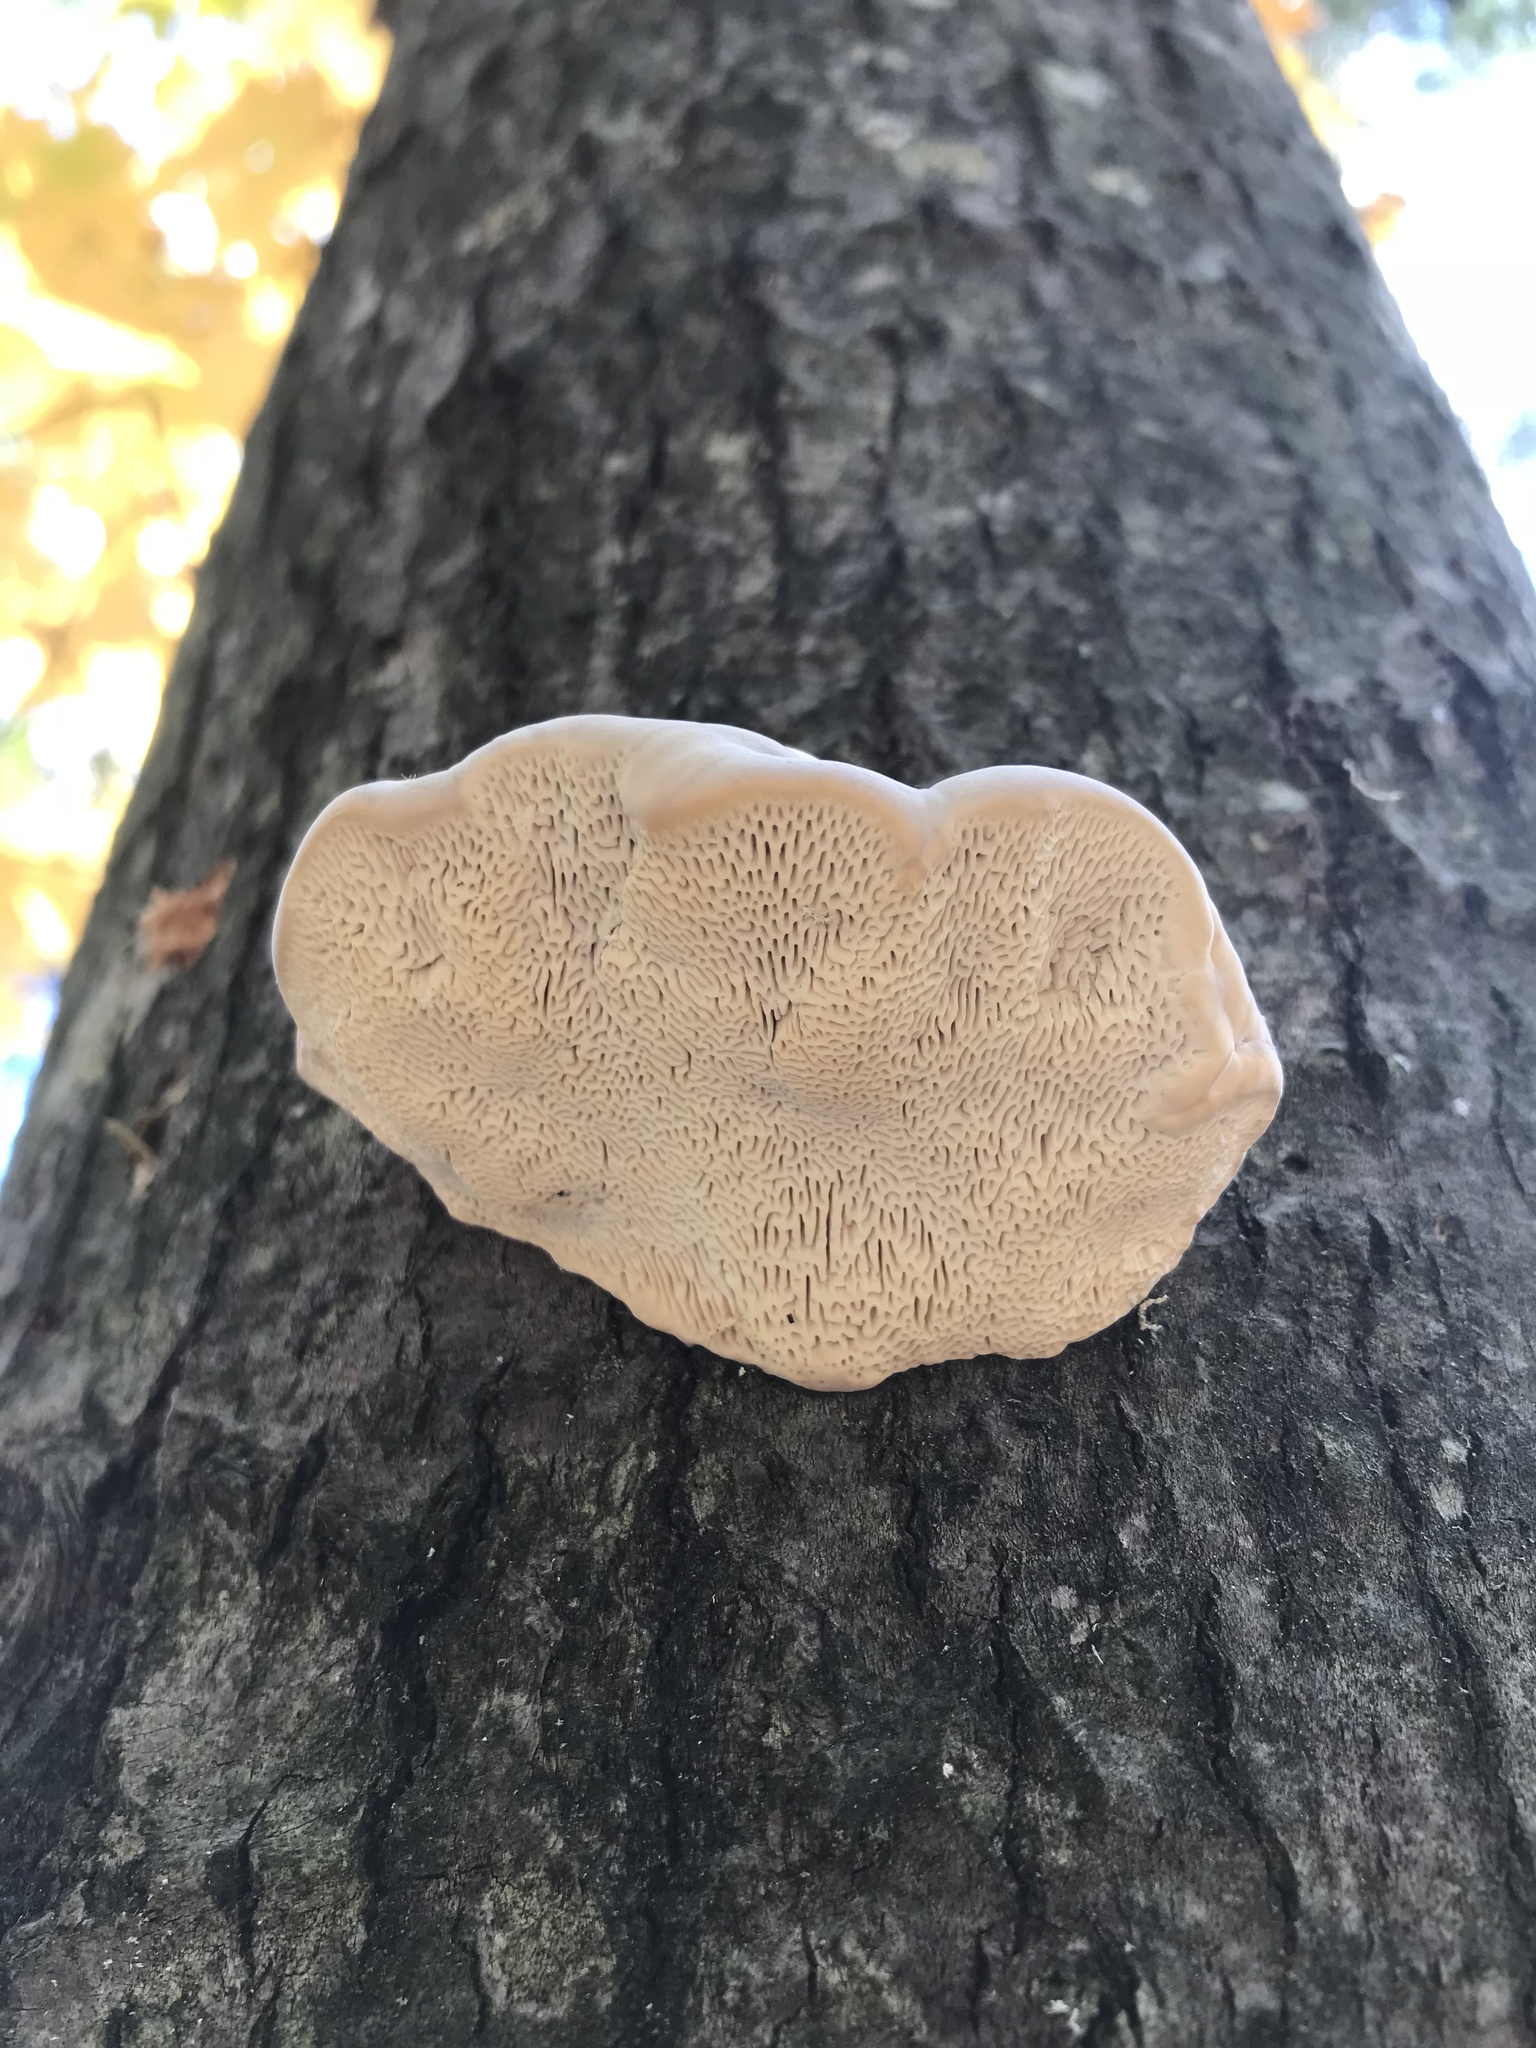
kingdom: Fungi
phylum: Basidiomycota
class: Agaricomycetes
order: Polyporales
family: Polyporaceae
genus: Trametes
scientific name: Trametes gibbosa
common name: Lumpy bracket
